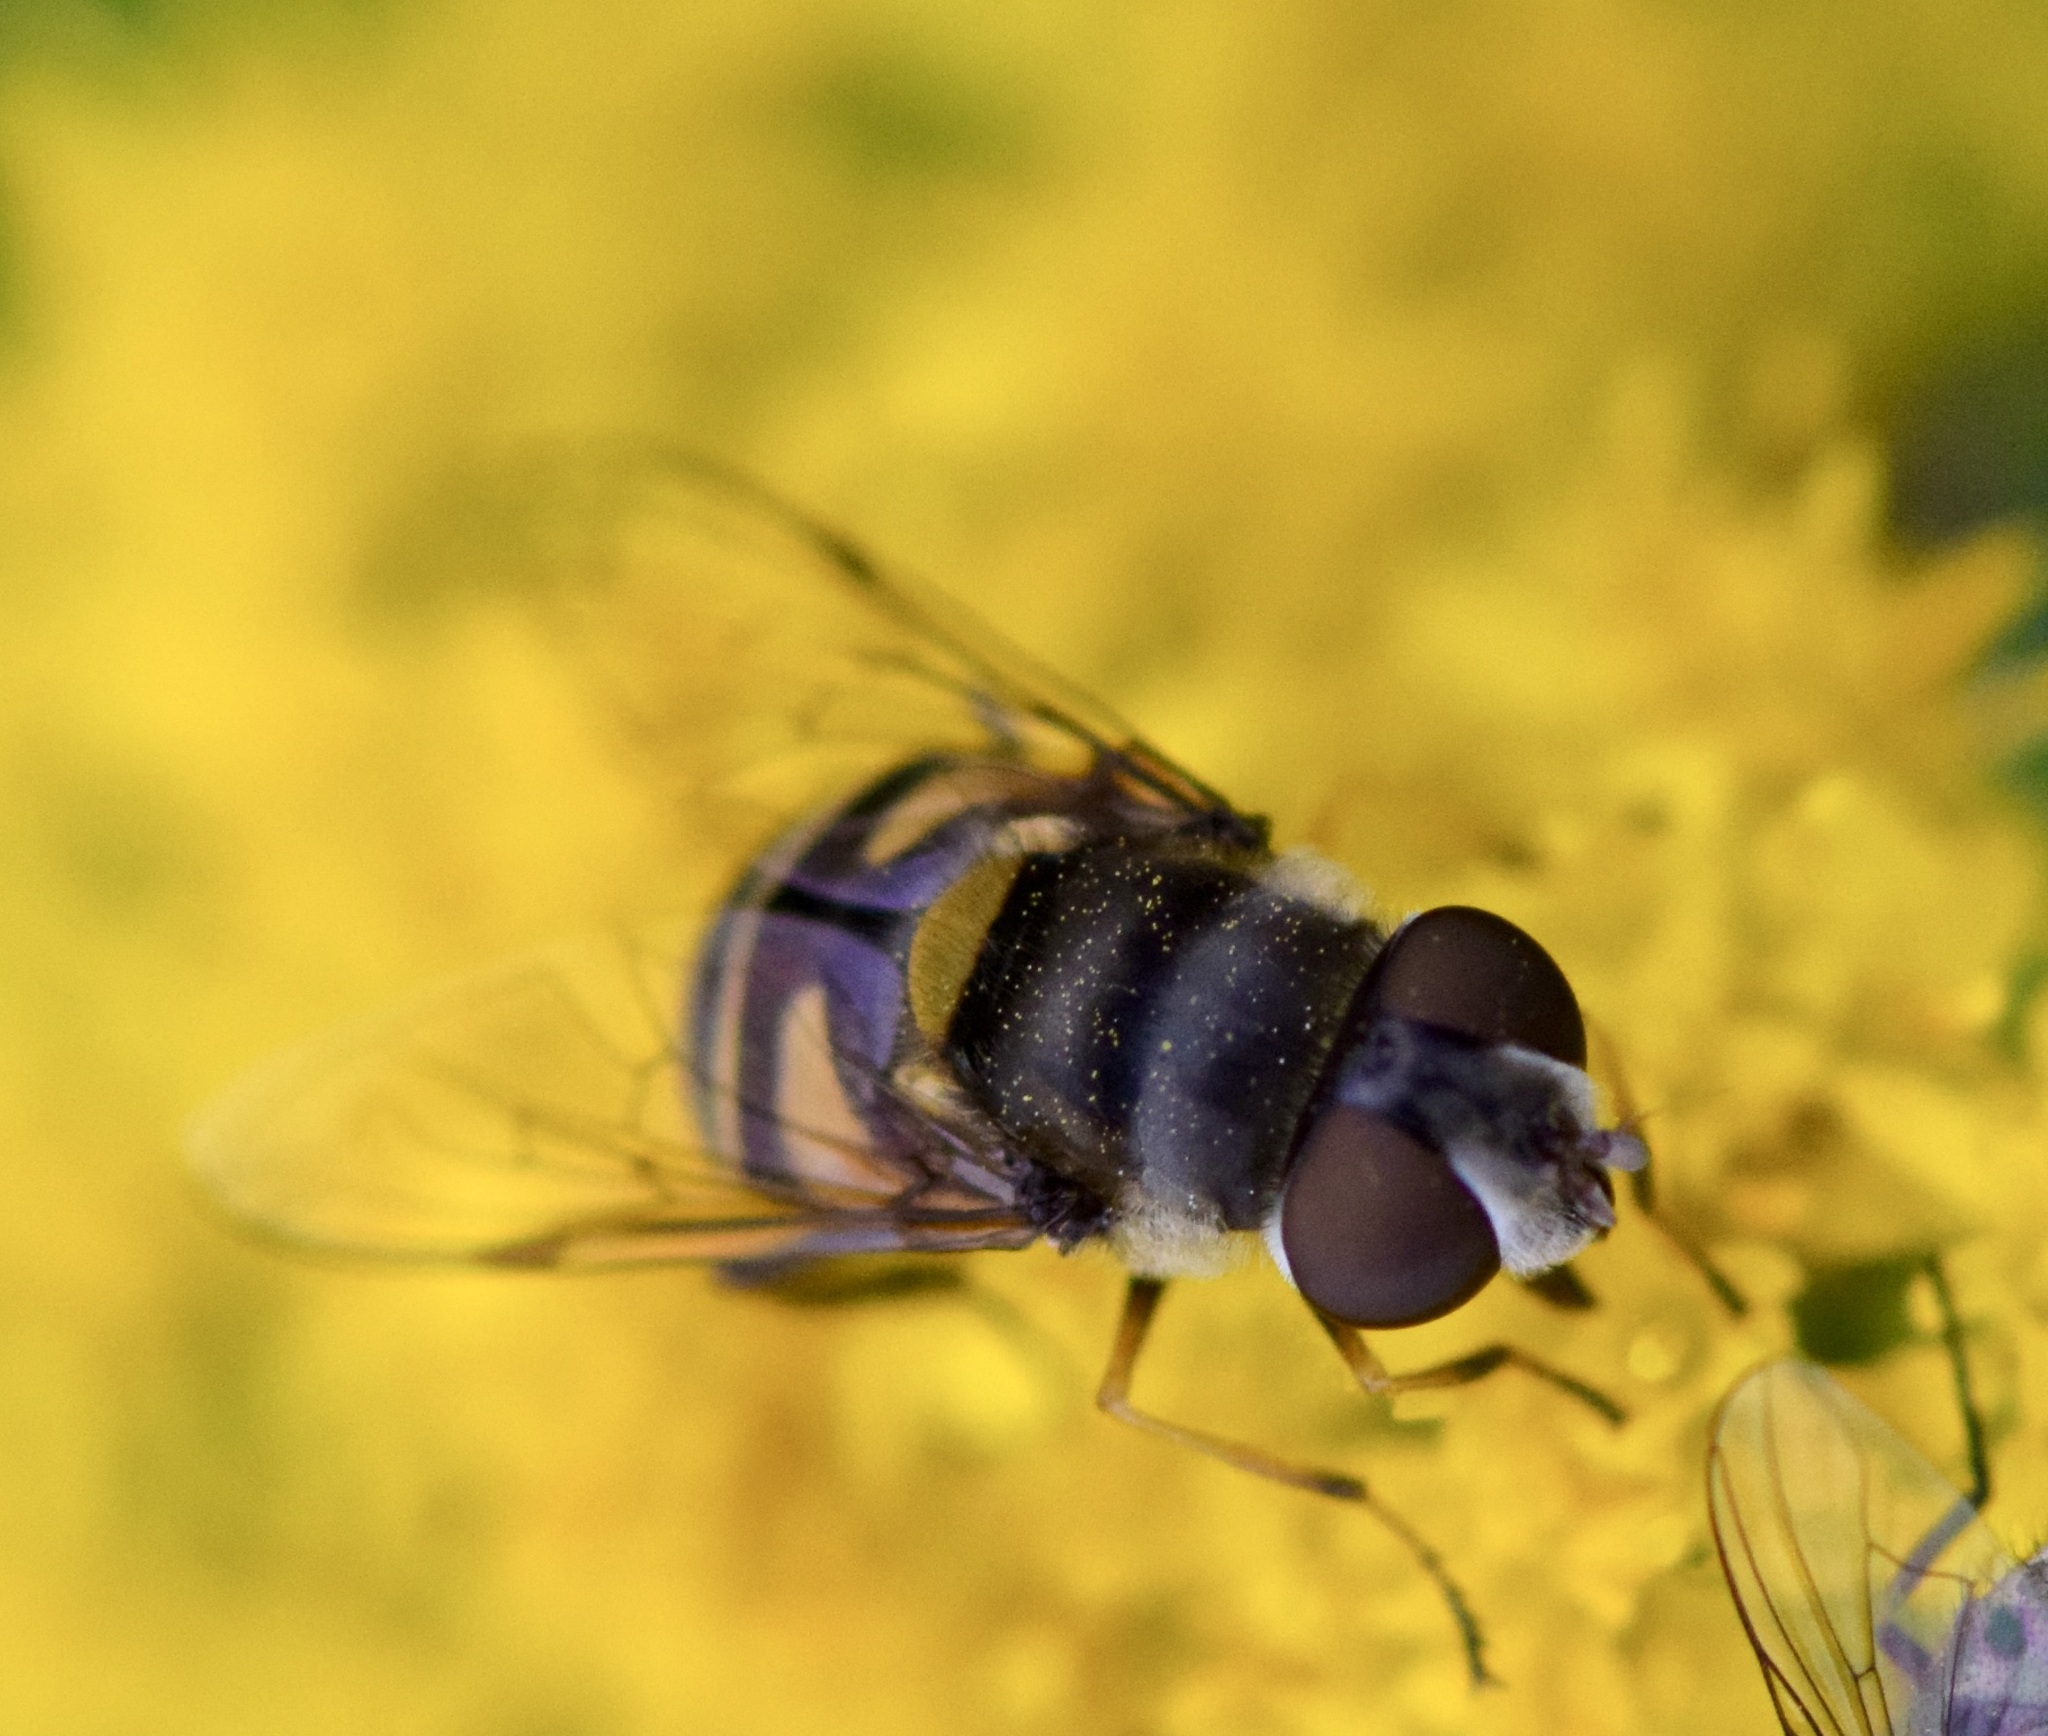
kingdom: Animalia
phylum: Arthropoda
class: Insecta
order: Diptera
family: Syrphidae
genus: Eristalis
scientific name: Eristalis transversa
